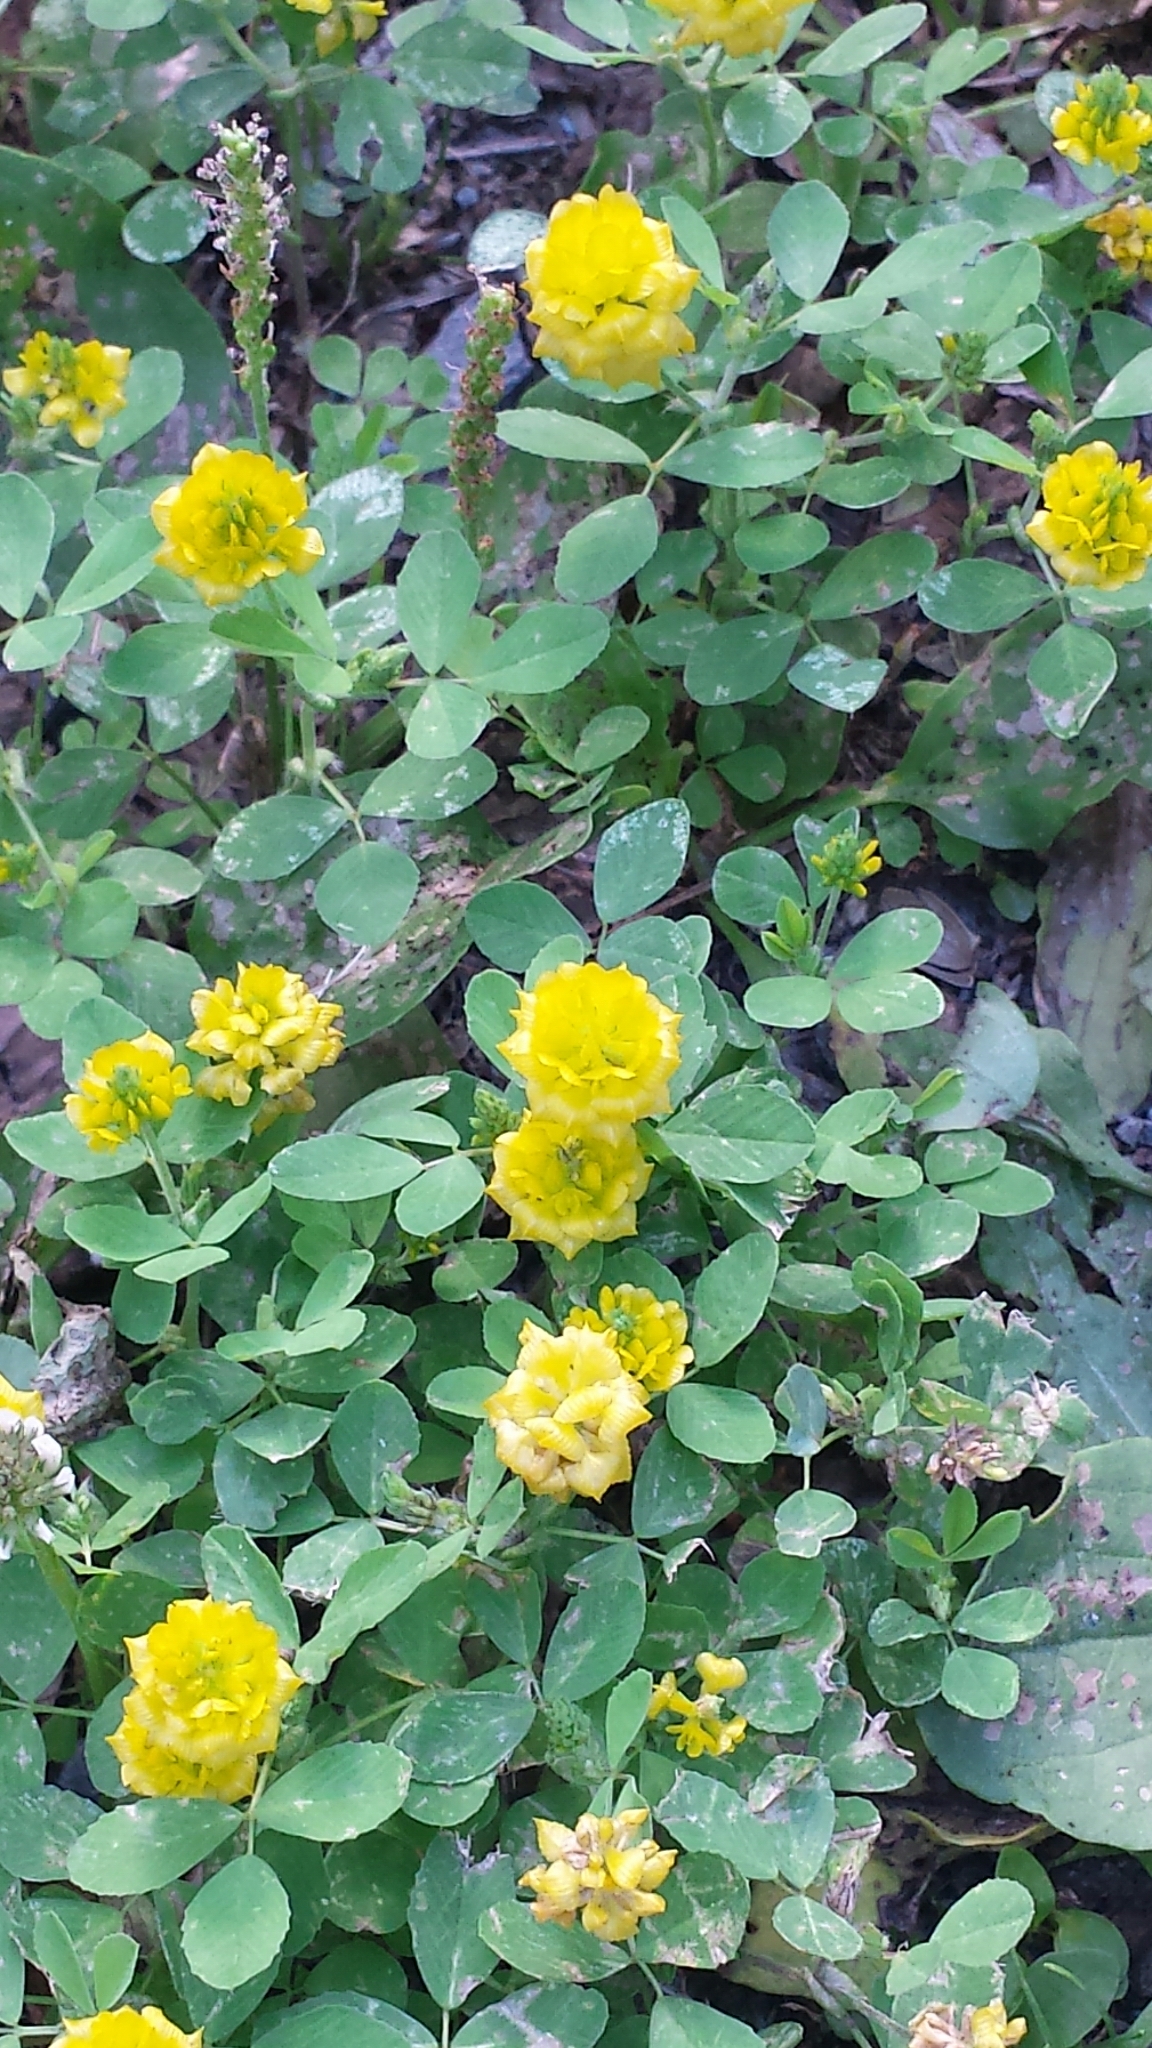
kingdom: Plantae
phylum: Tracheophyta
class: Magnoliopsida
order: Fabales
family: Fabaceae
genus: Trifolium
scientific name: Trifolium campestre
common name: Field clover
